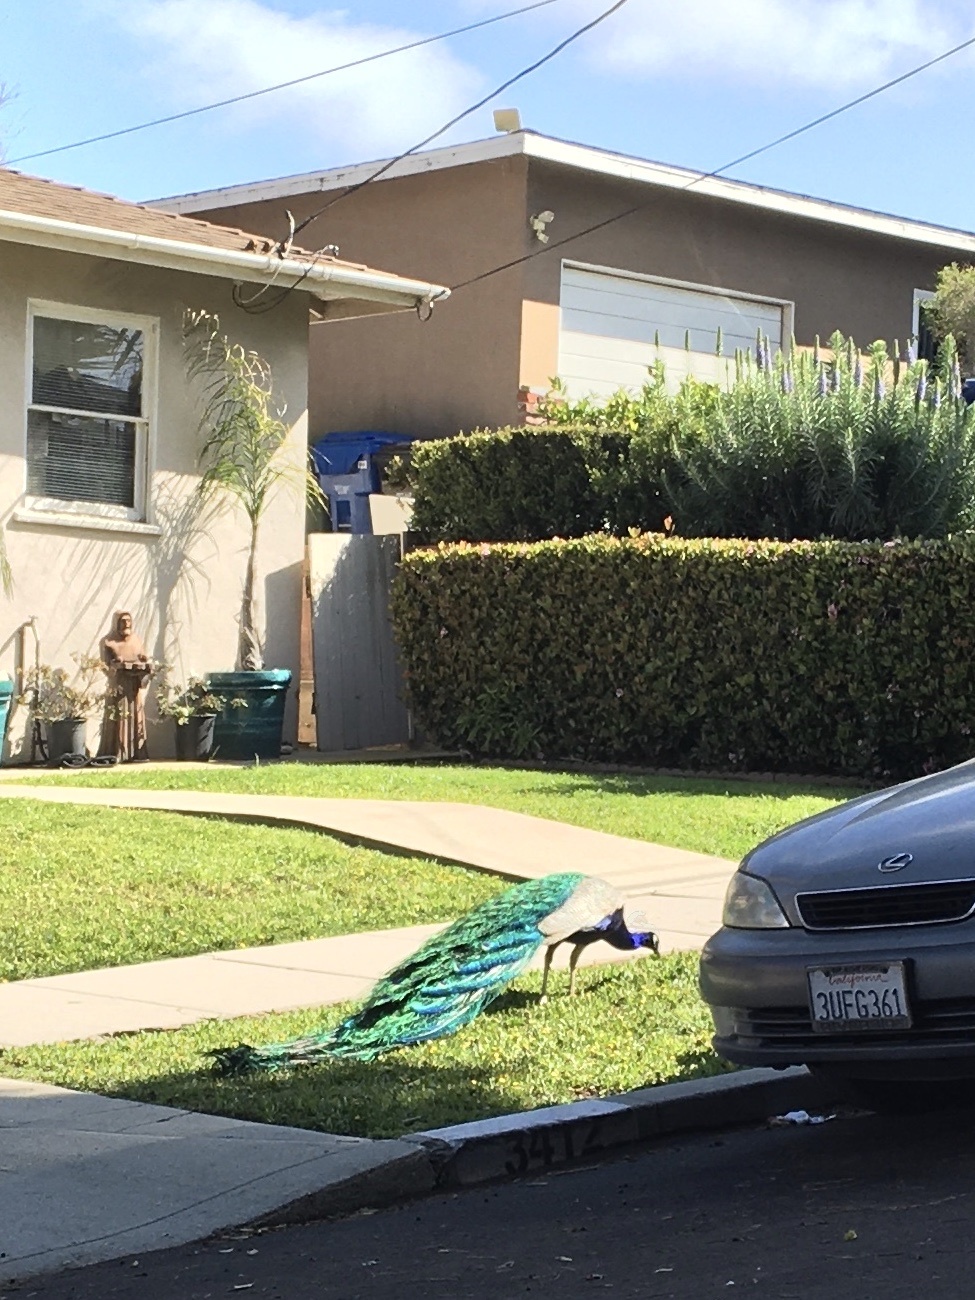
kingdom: Animalia
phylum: Chordata
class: Aves
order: Galliformes
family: Phasianidae
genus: Pavo
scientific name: Pavo cristatus
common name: Indian peafowl
